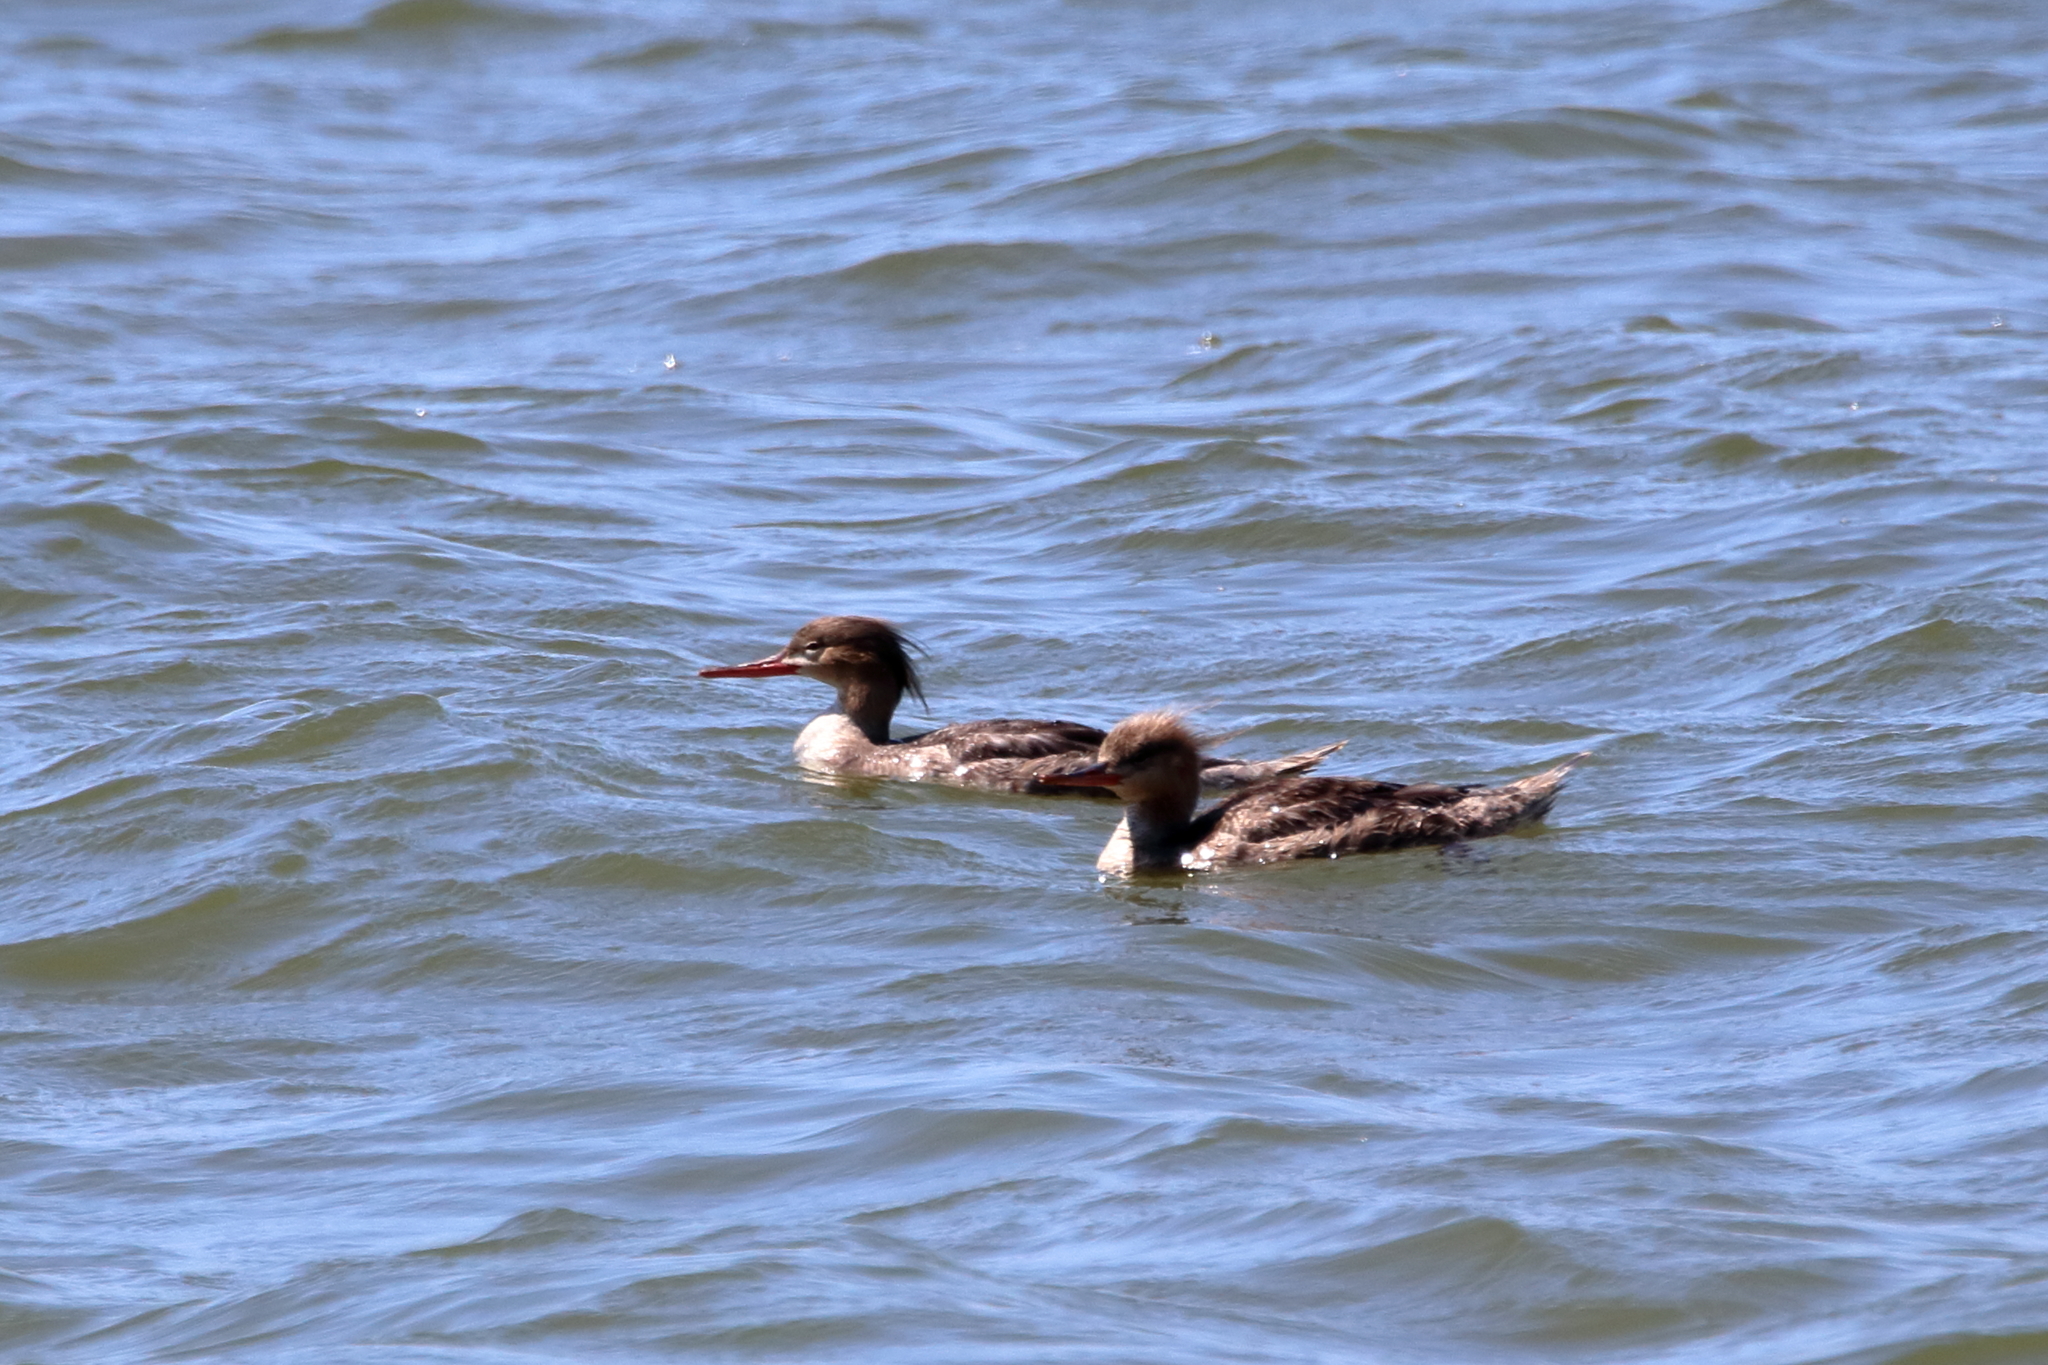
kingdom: Animalia
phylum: Chordata
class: Aves
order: Anseriformes
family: Anatidae
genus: Mergus
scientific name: Mergus serrator
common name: Red-breasted merganser
